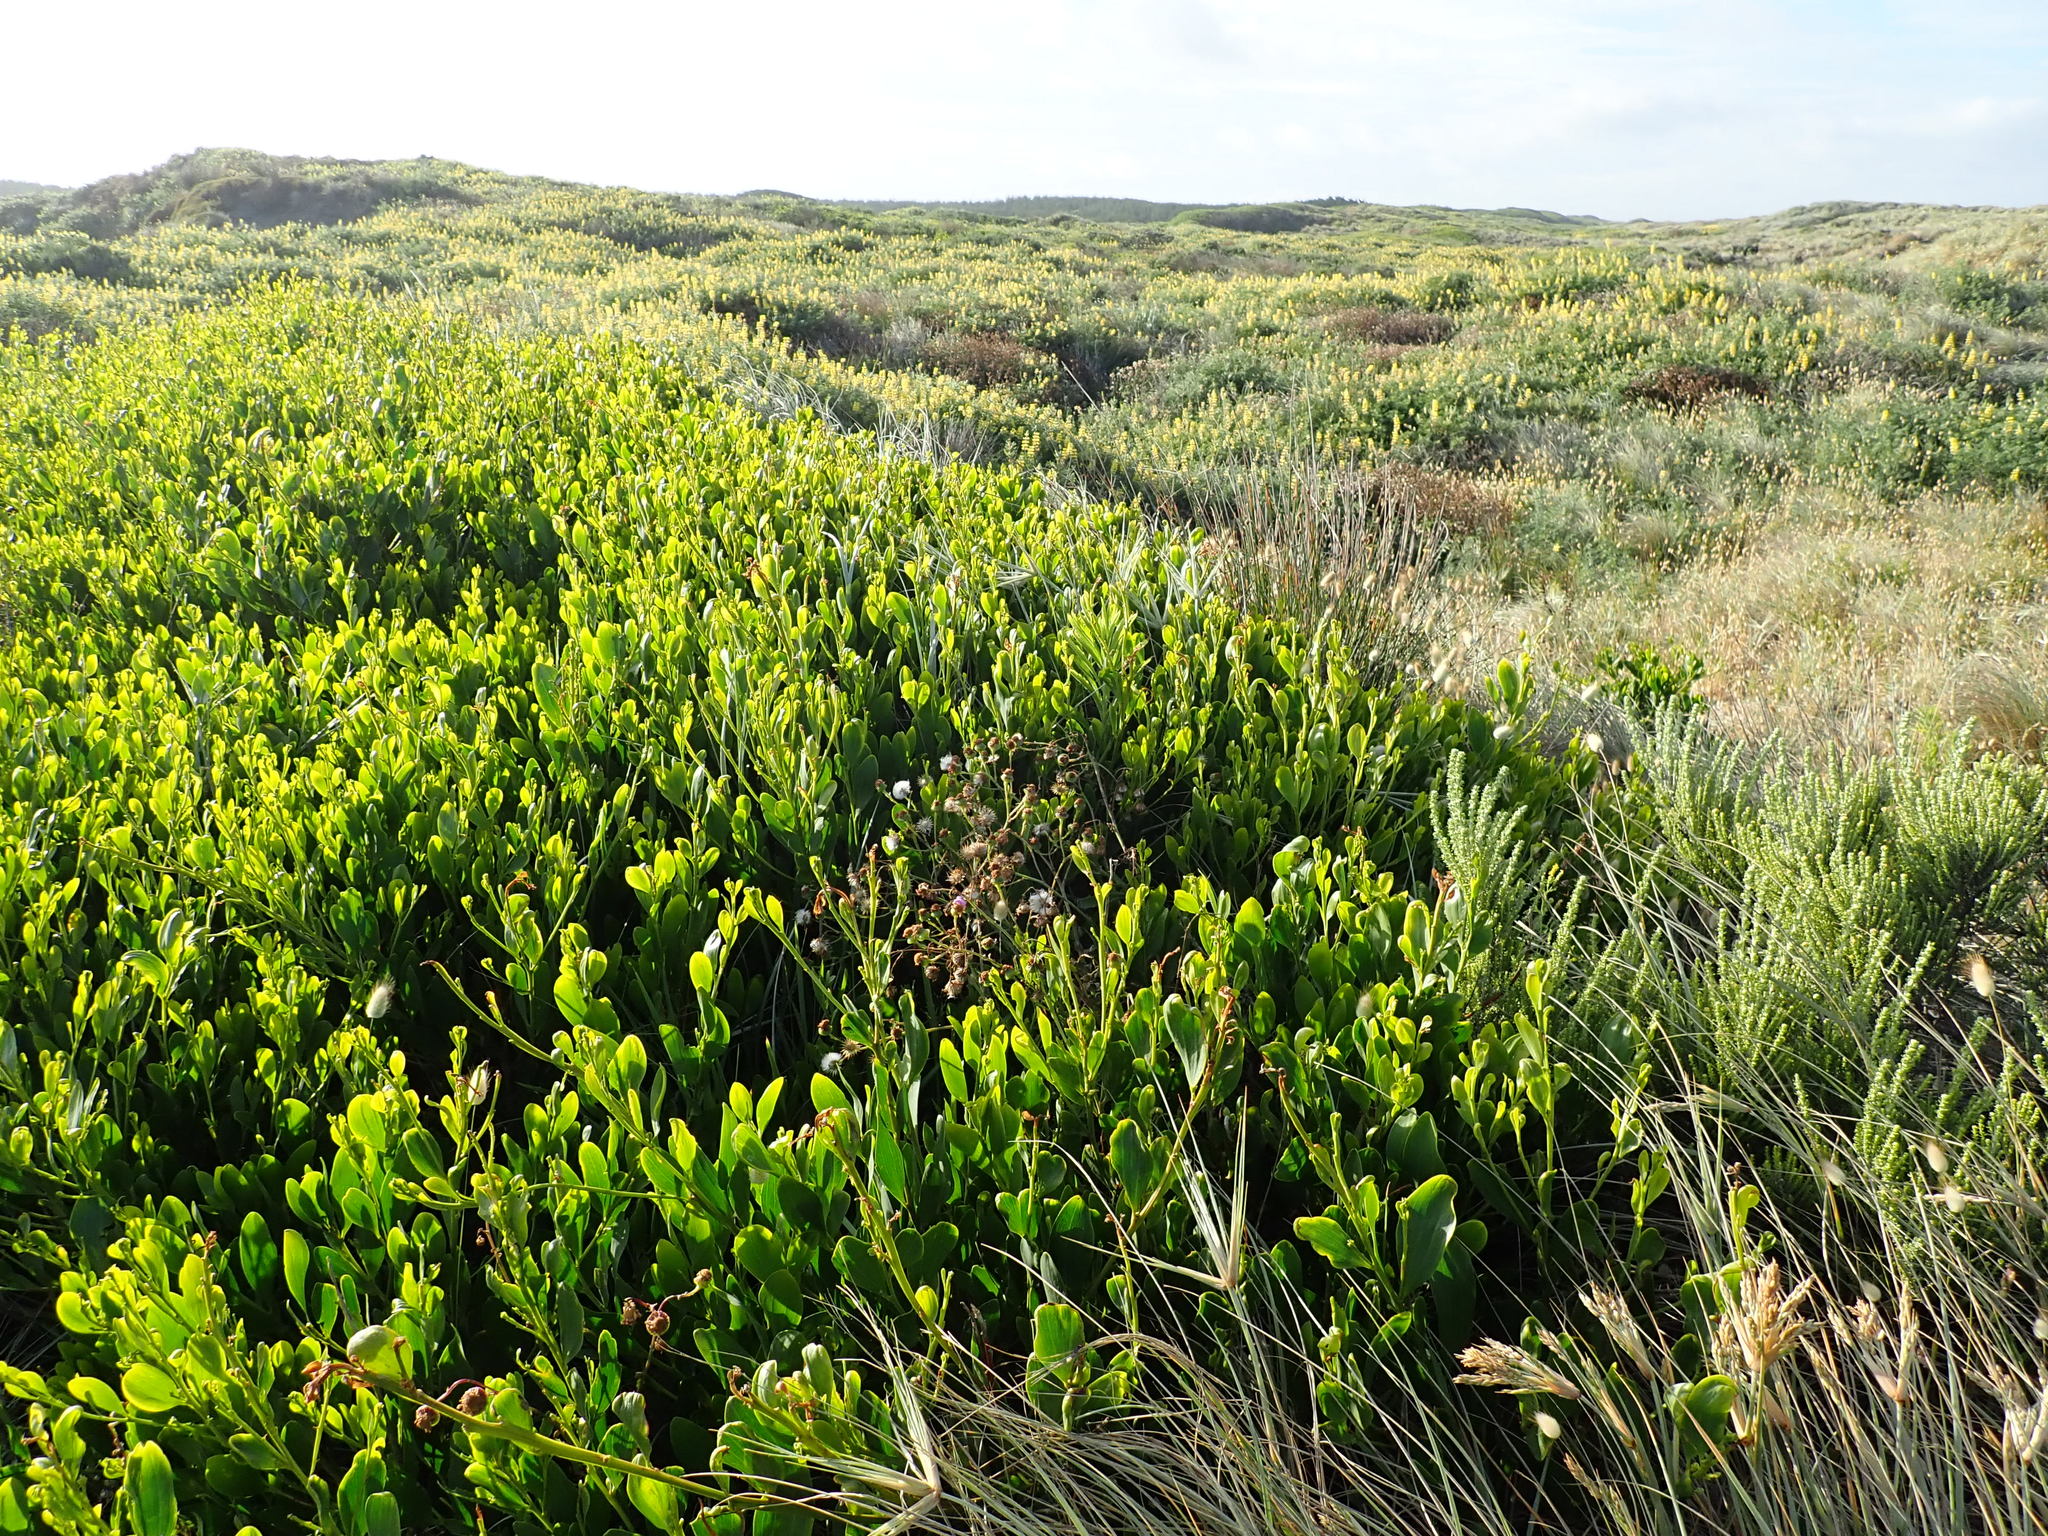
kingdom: Plantae
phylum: Tracheophyta
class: Magnoliopsida
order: Fabales
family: Fabaceae
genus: Acacia
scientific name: Acacia longifolia
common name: Sydney golden wattle
